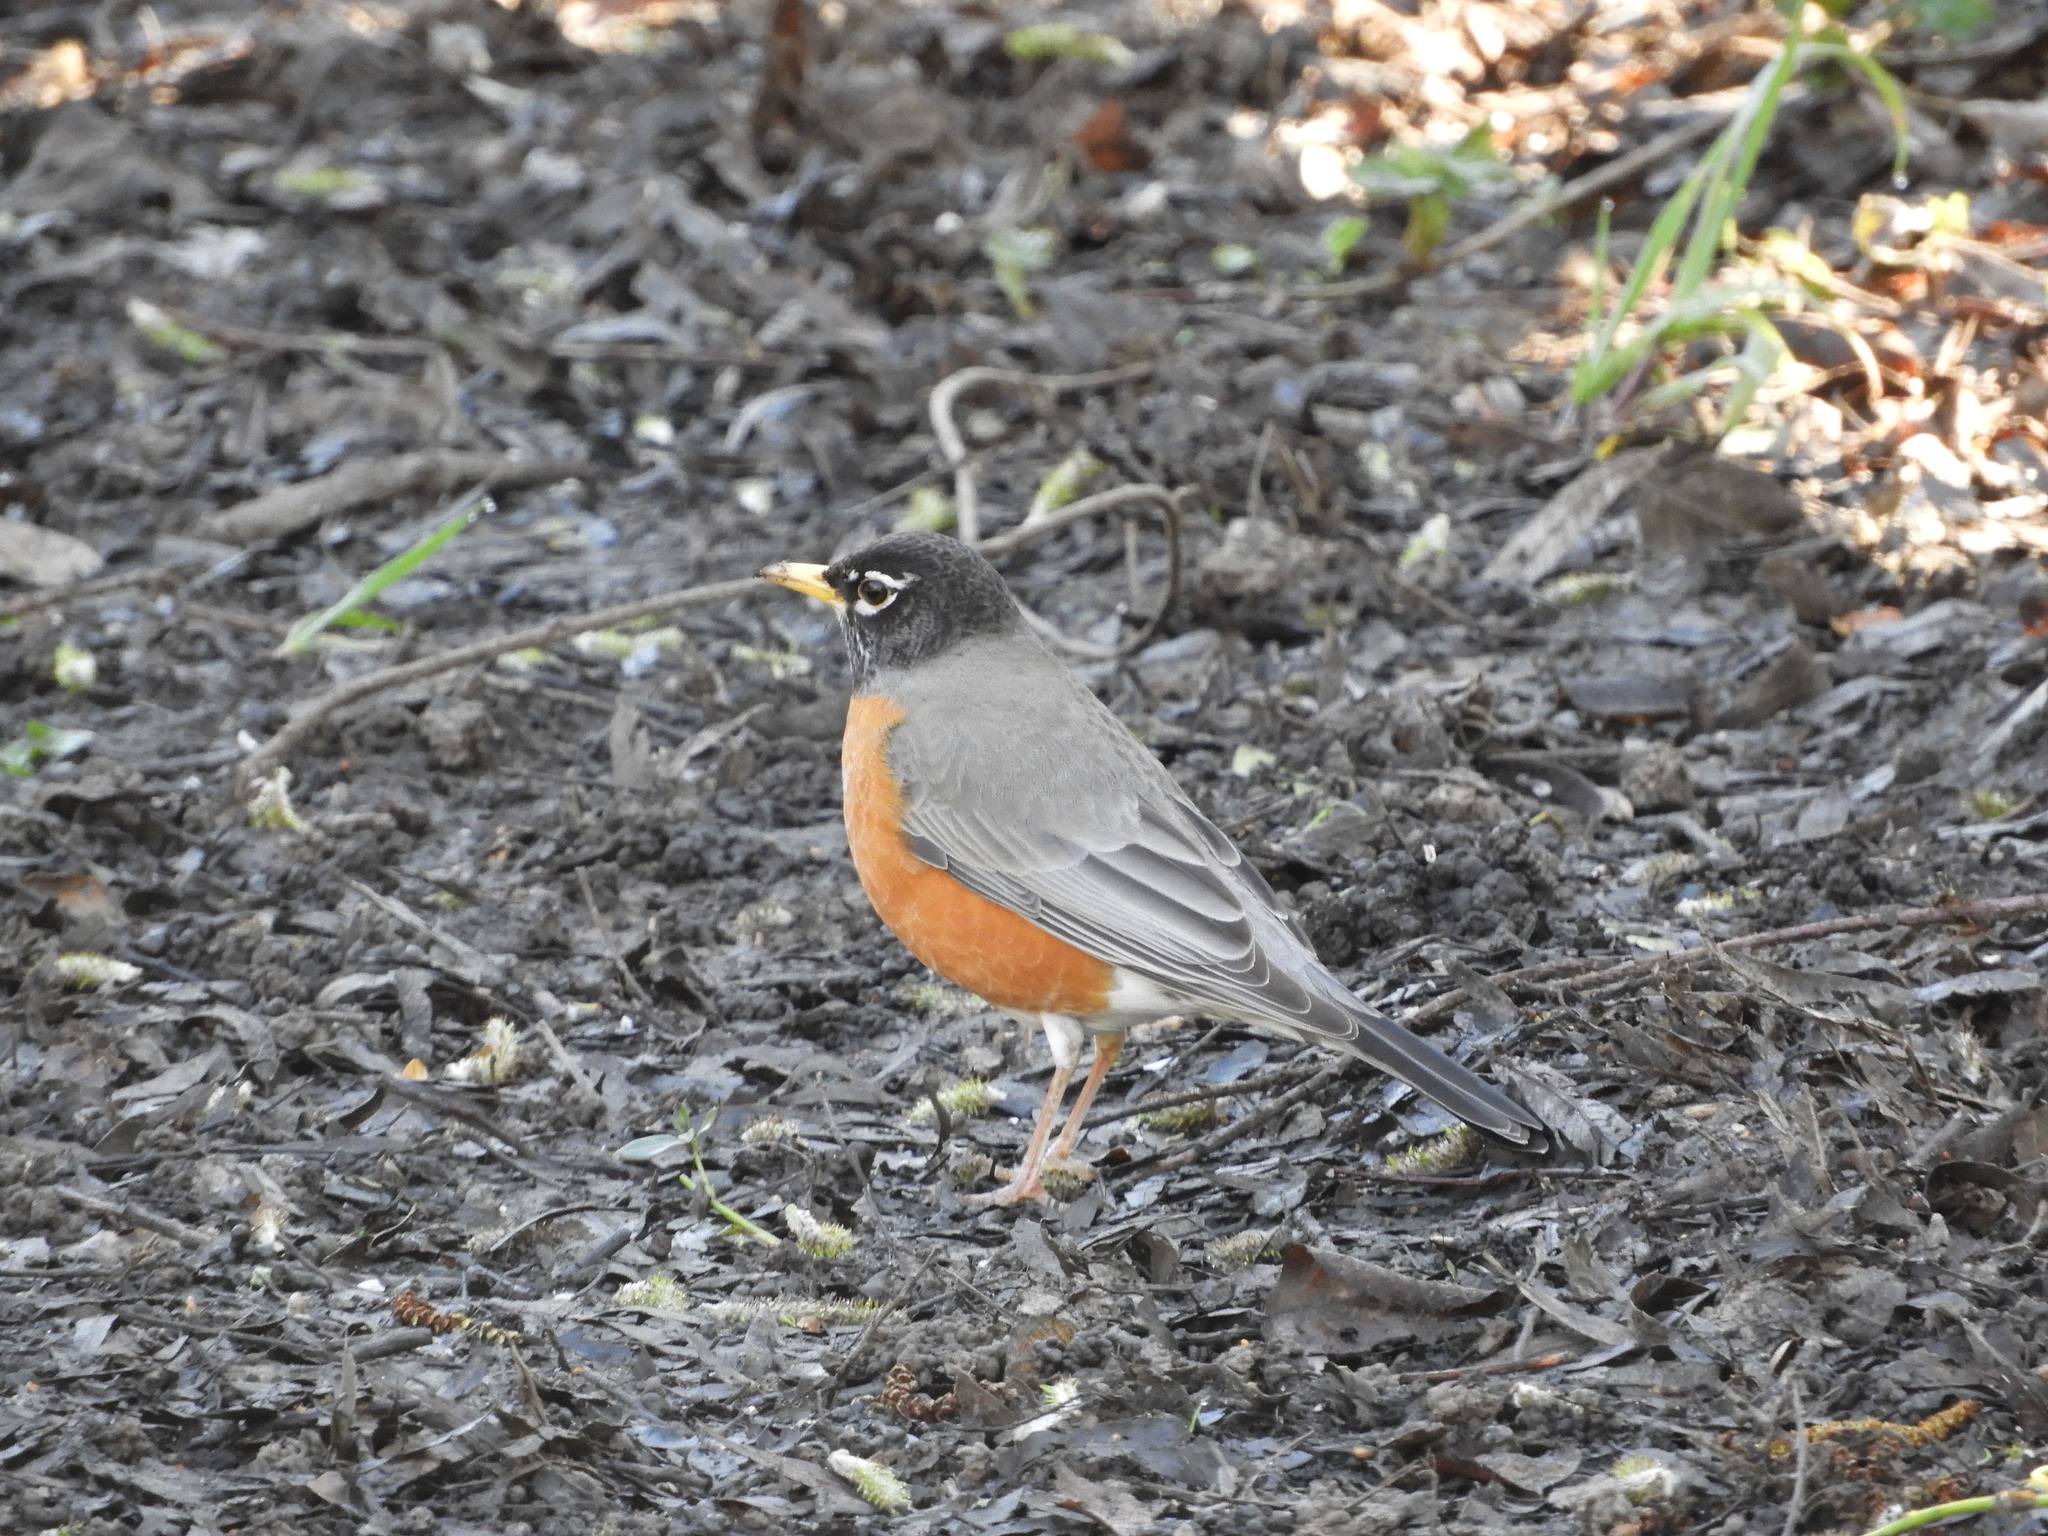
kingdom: Animalia
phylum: Chordata
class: Aves
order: Passeriformes
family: Turdidae
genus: Turdus
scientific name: Turdus migratorius
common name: American robin
